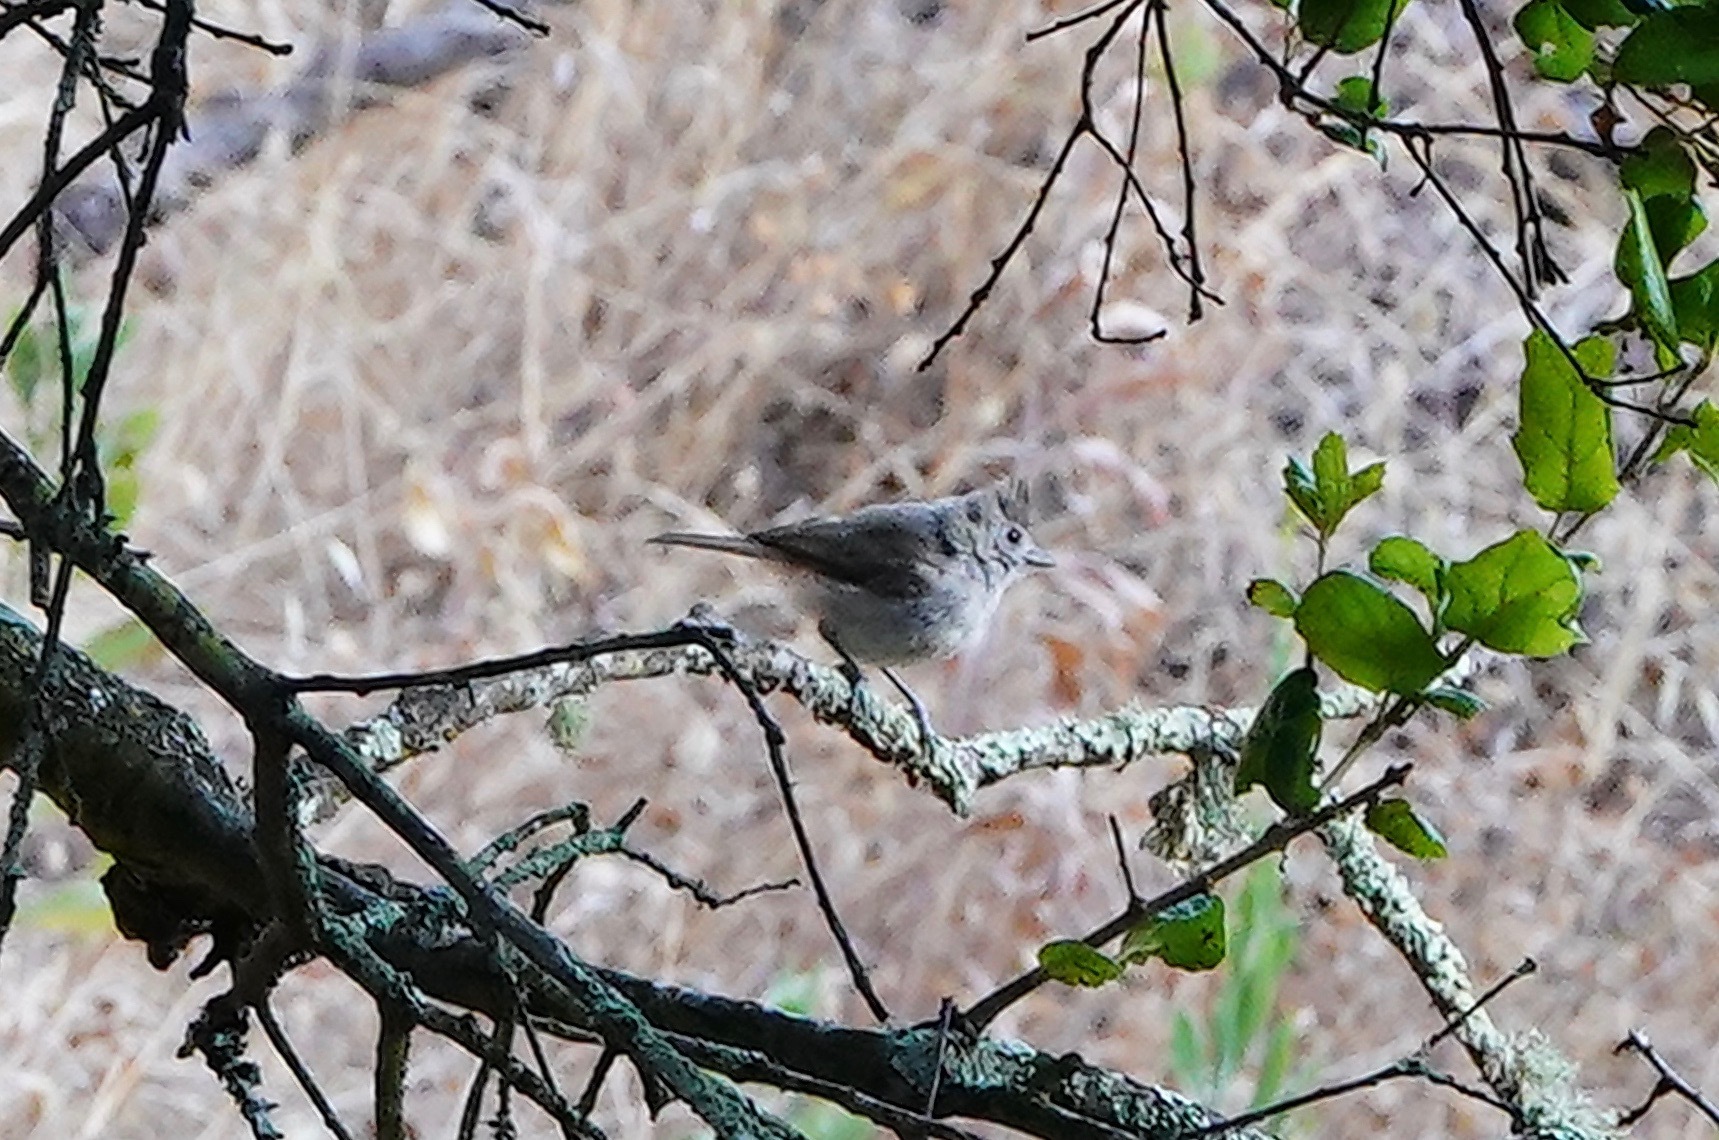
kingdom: Animalia
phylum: Chordata
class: Aves
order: Passeriformes
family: Paridae
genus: Baeolophus
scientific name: Baeolophus inornatus
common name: Oak titmouse
